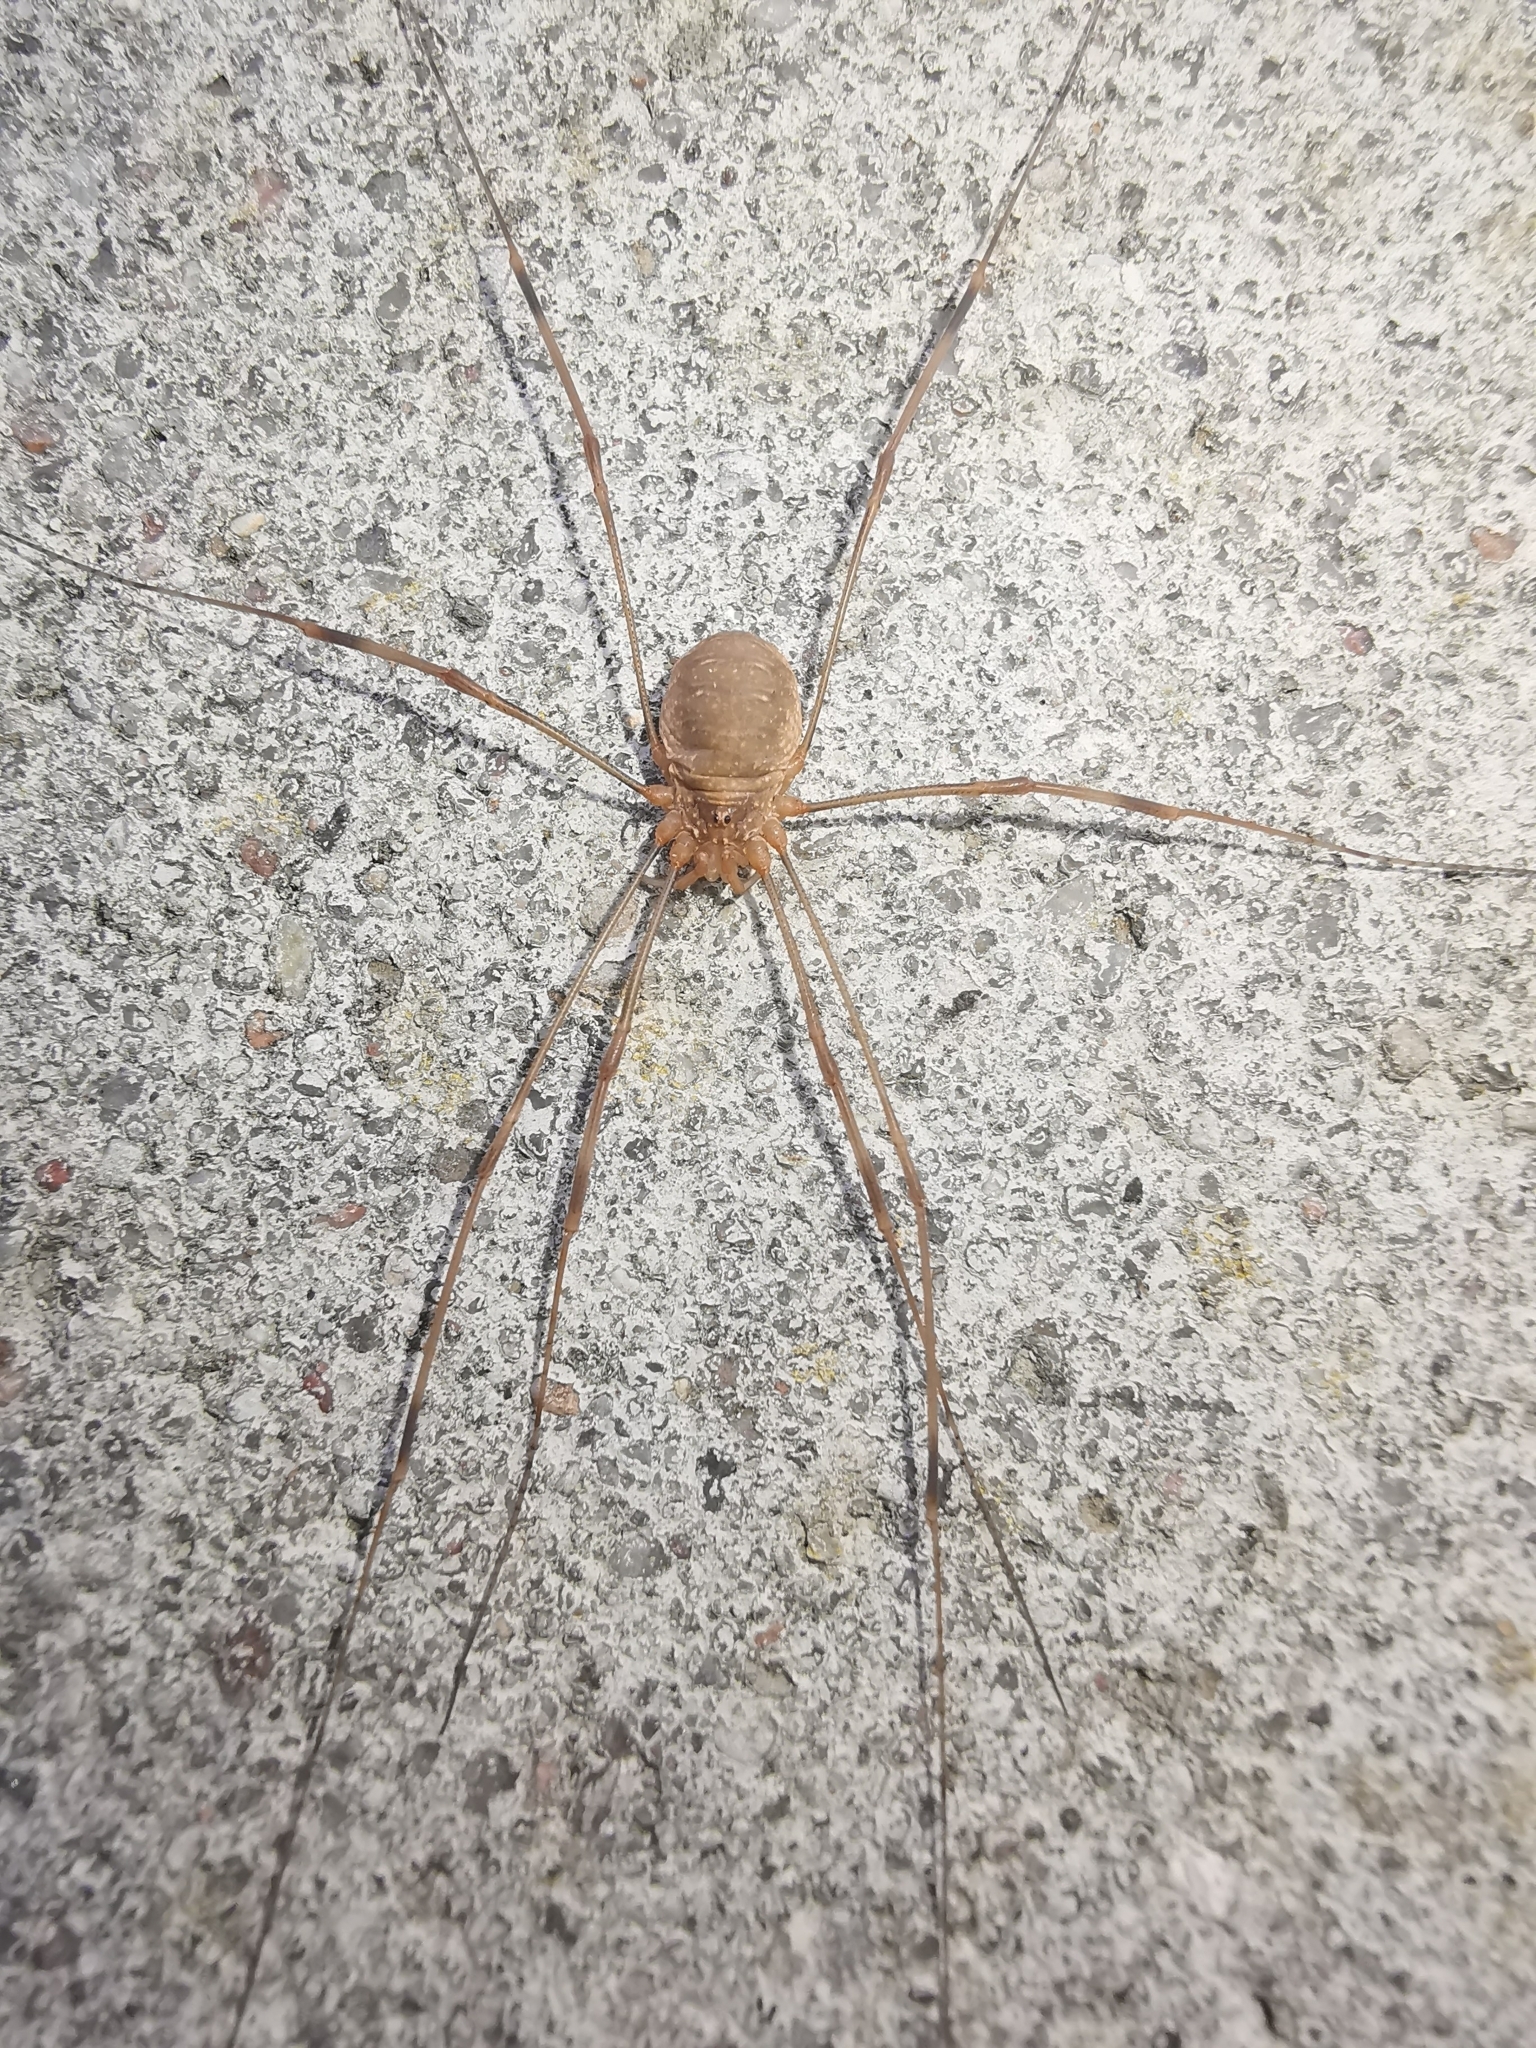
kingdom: Animalia
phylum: Arthropoda
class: Arachnida
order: Opiliones
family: Phalangiidae
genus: Opilio
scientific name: Opilio canestrinii
